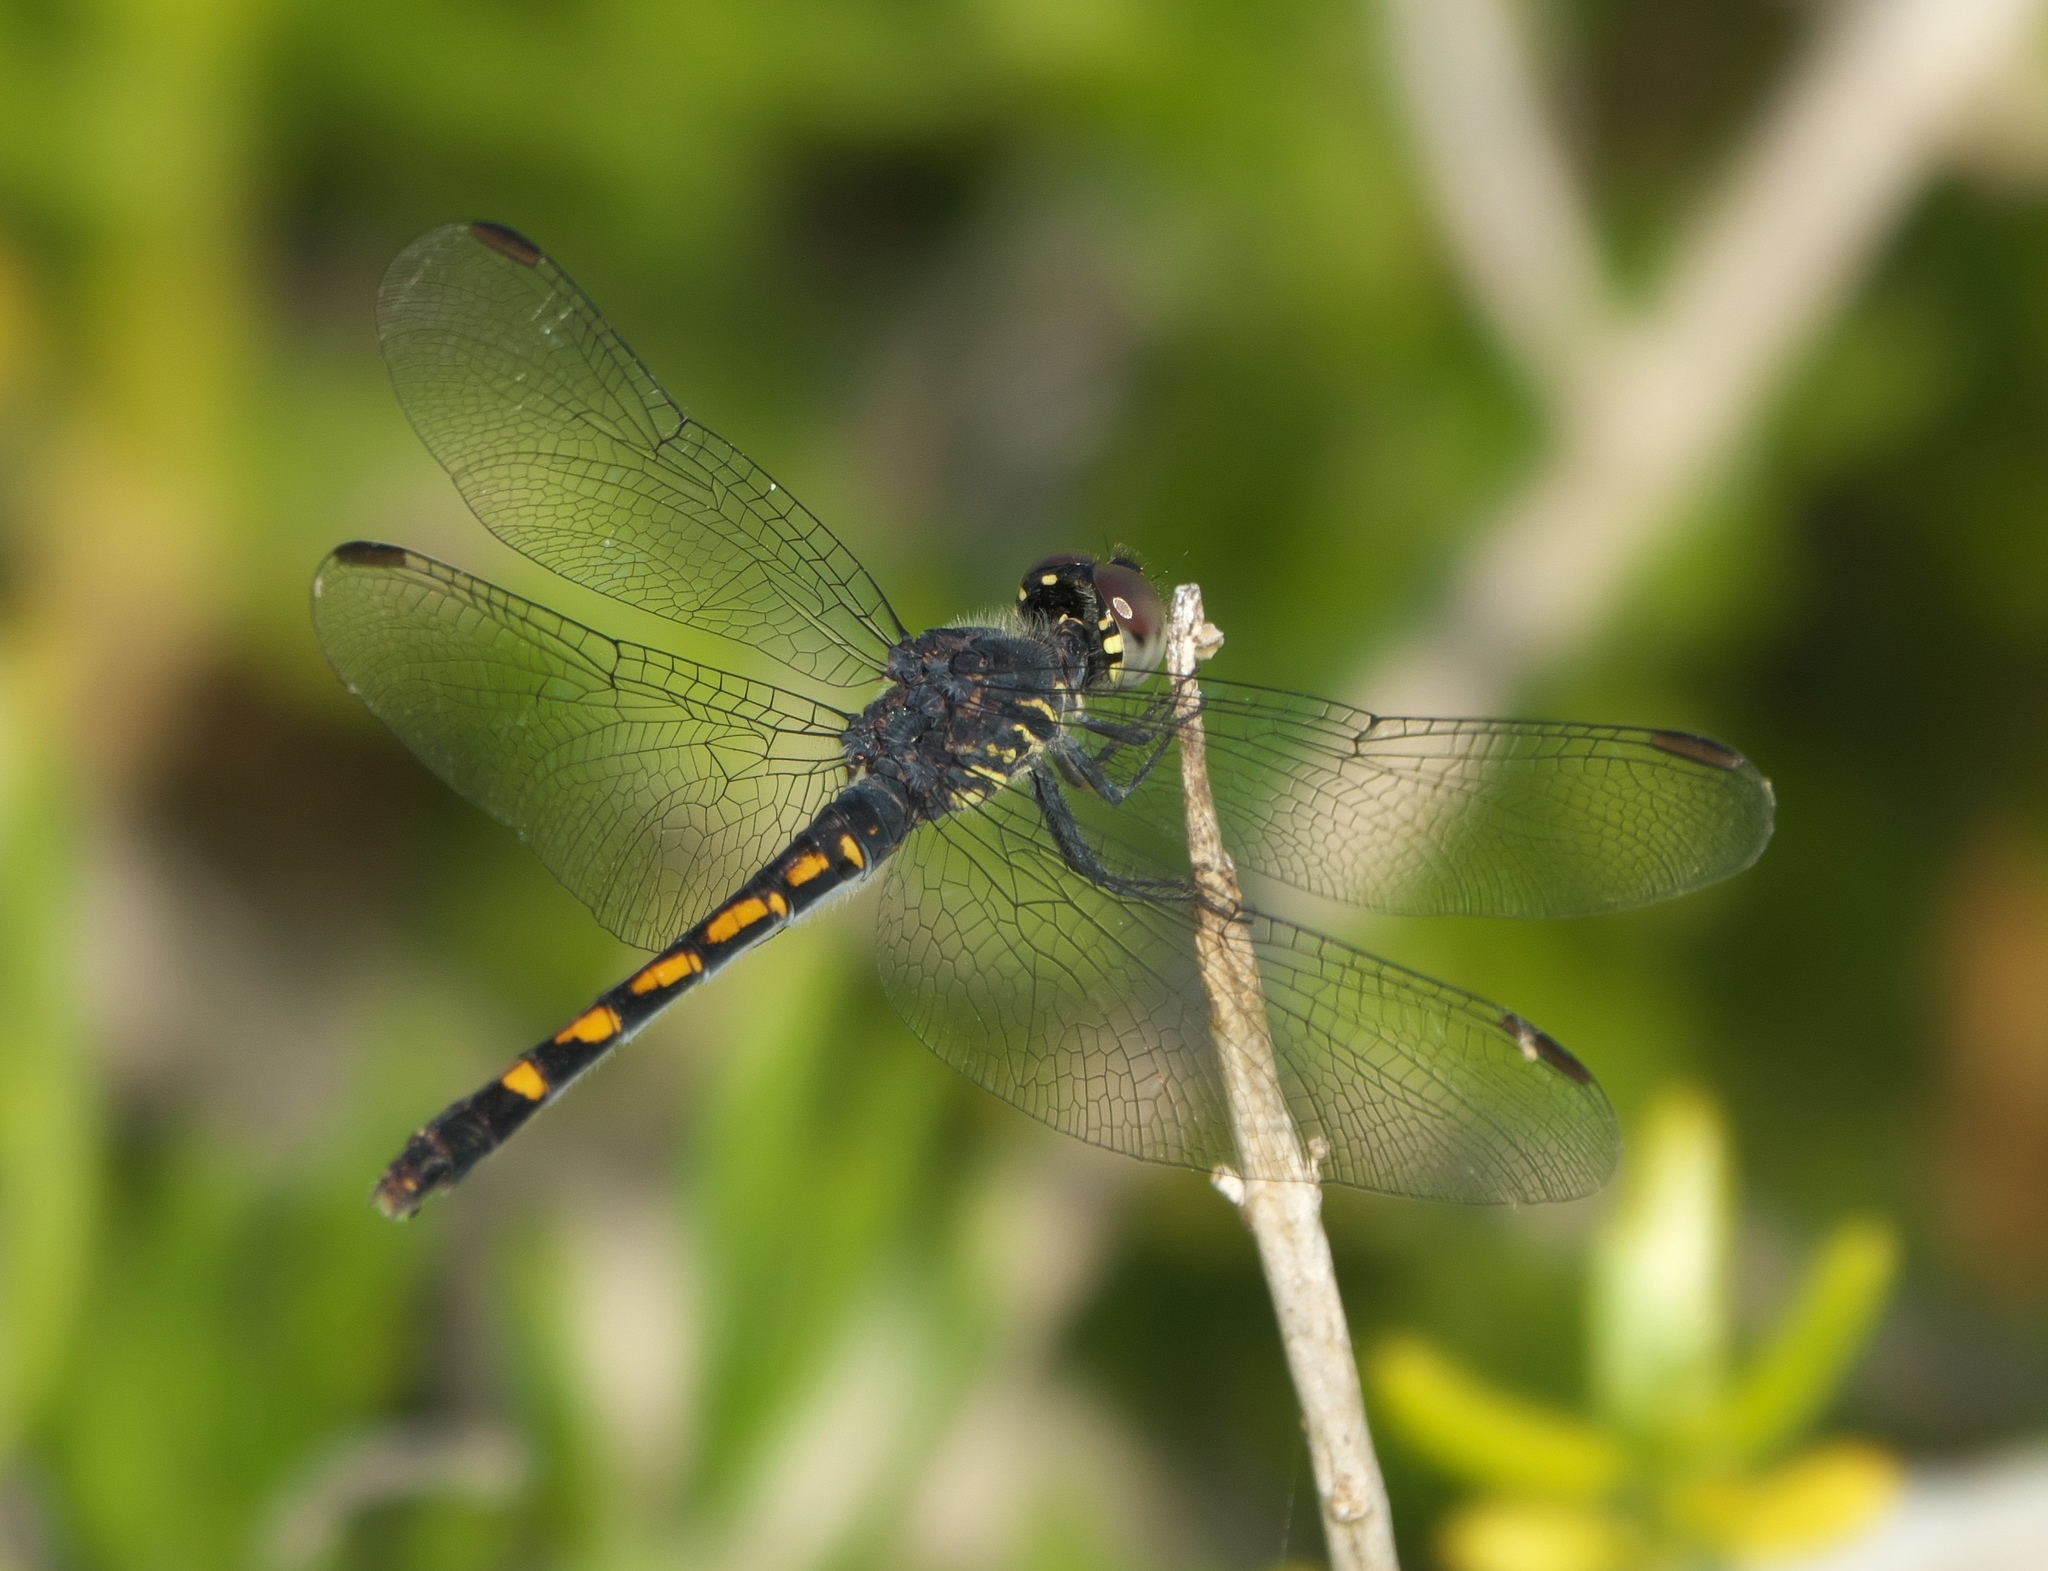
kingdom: Animalia
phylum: Arthropoda
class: Insecta
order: Odonata
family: Libellulidae
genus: Erythrodiplax
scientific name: Erythrodiplax berenice
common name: Seaside dragonlet
